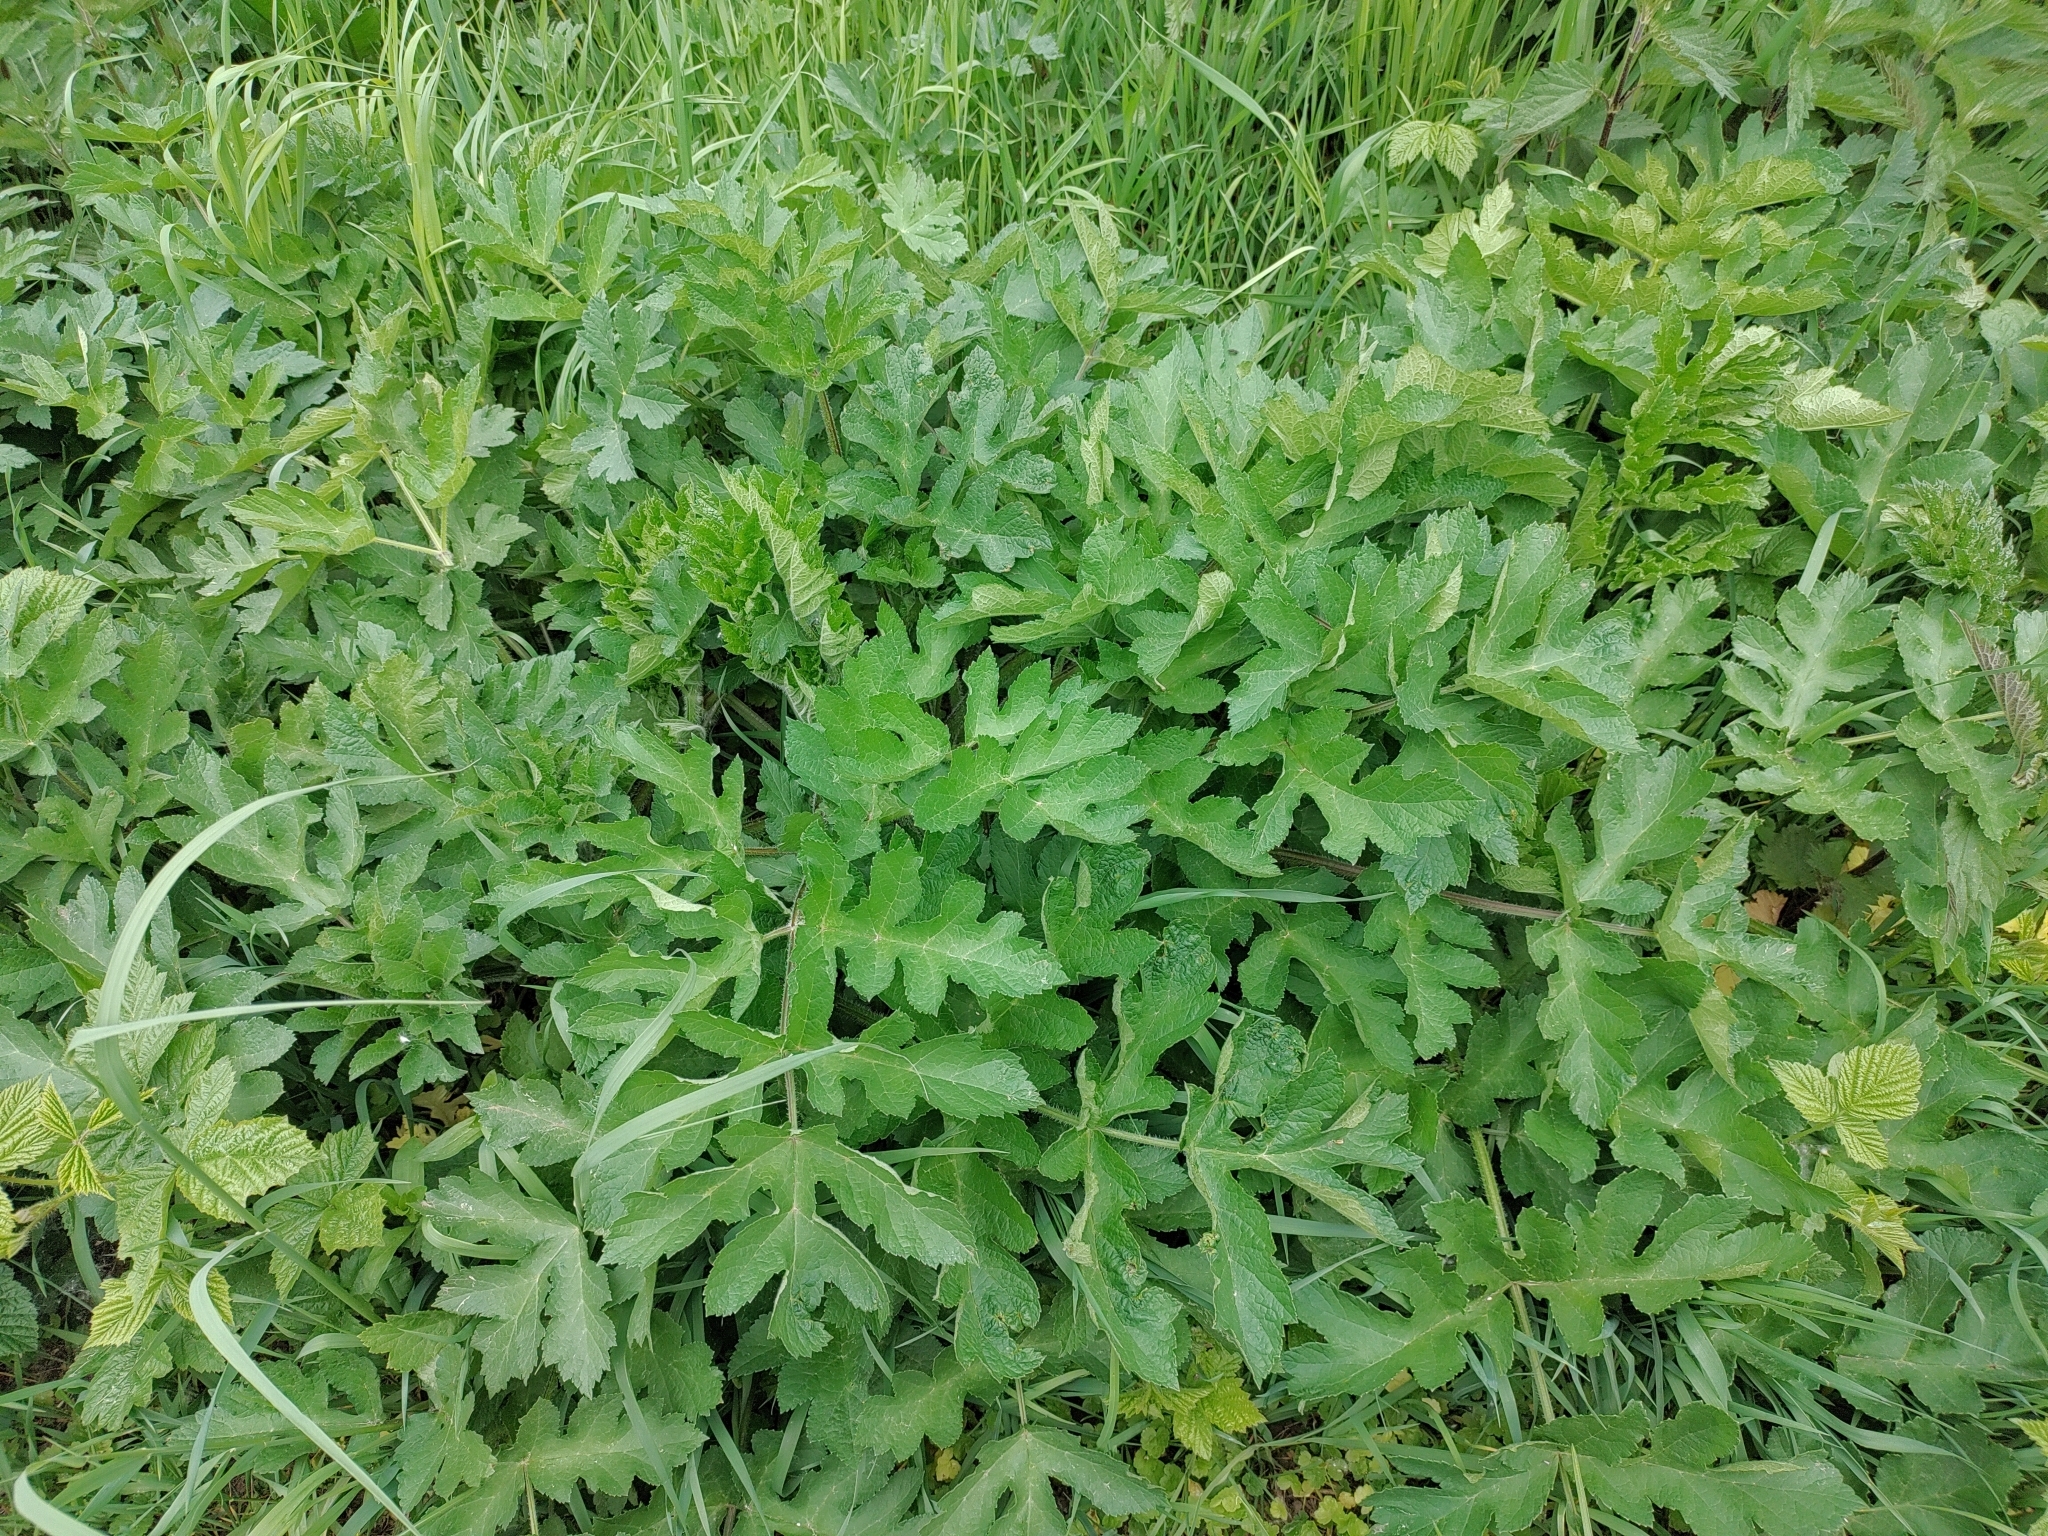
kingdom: Plantae
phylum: Tracheophyta
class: Magnoliopsida
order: Apiales
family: Apiaceae
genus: Heracleum
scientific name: Heracleum sphondylium
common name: Hogweed
